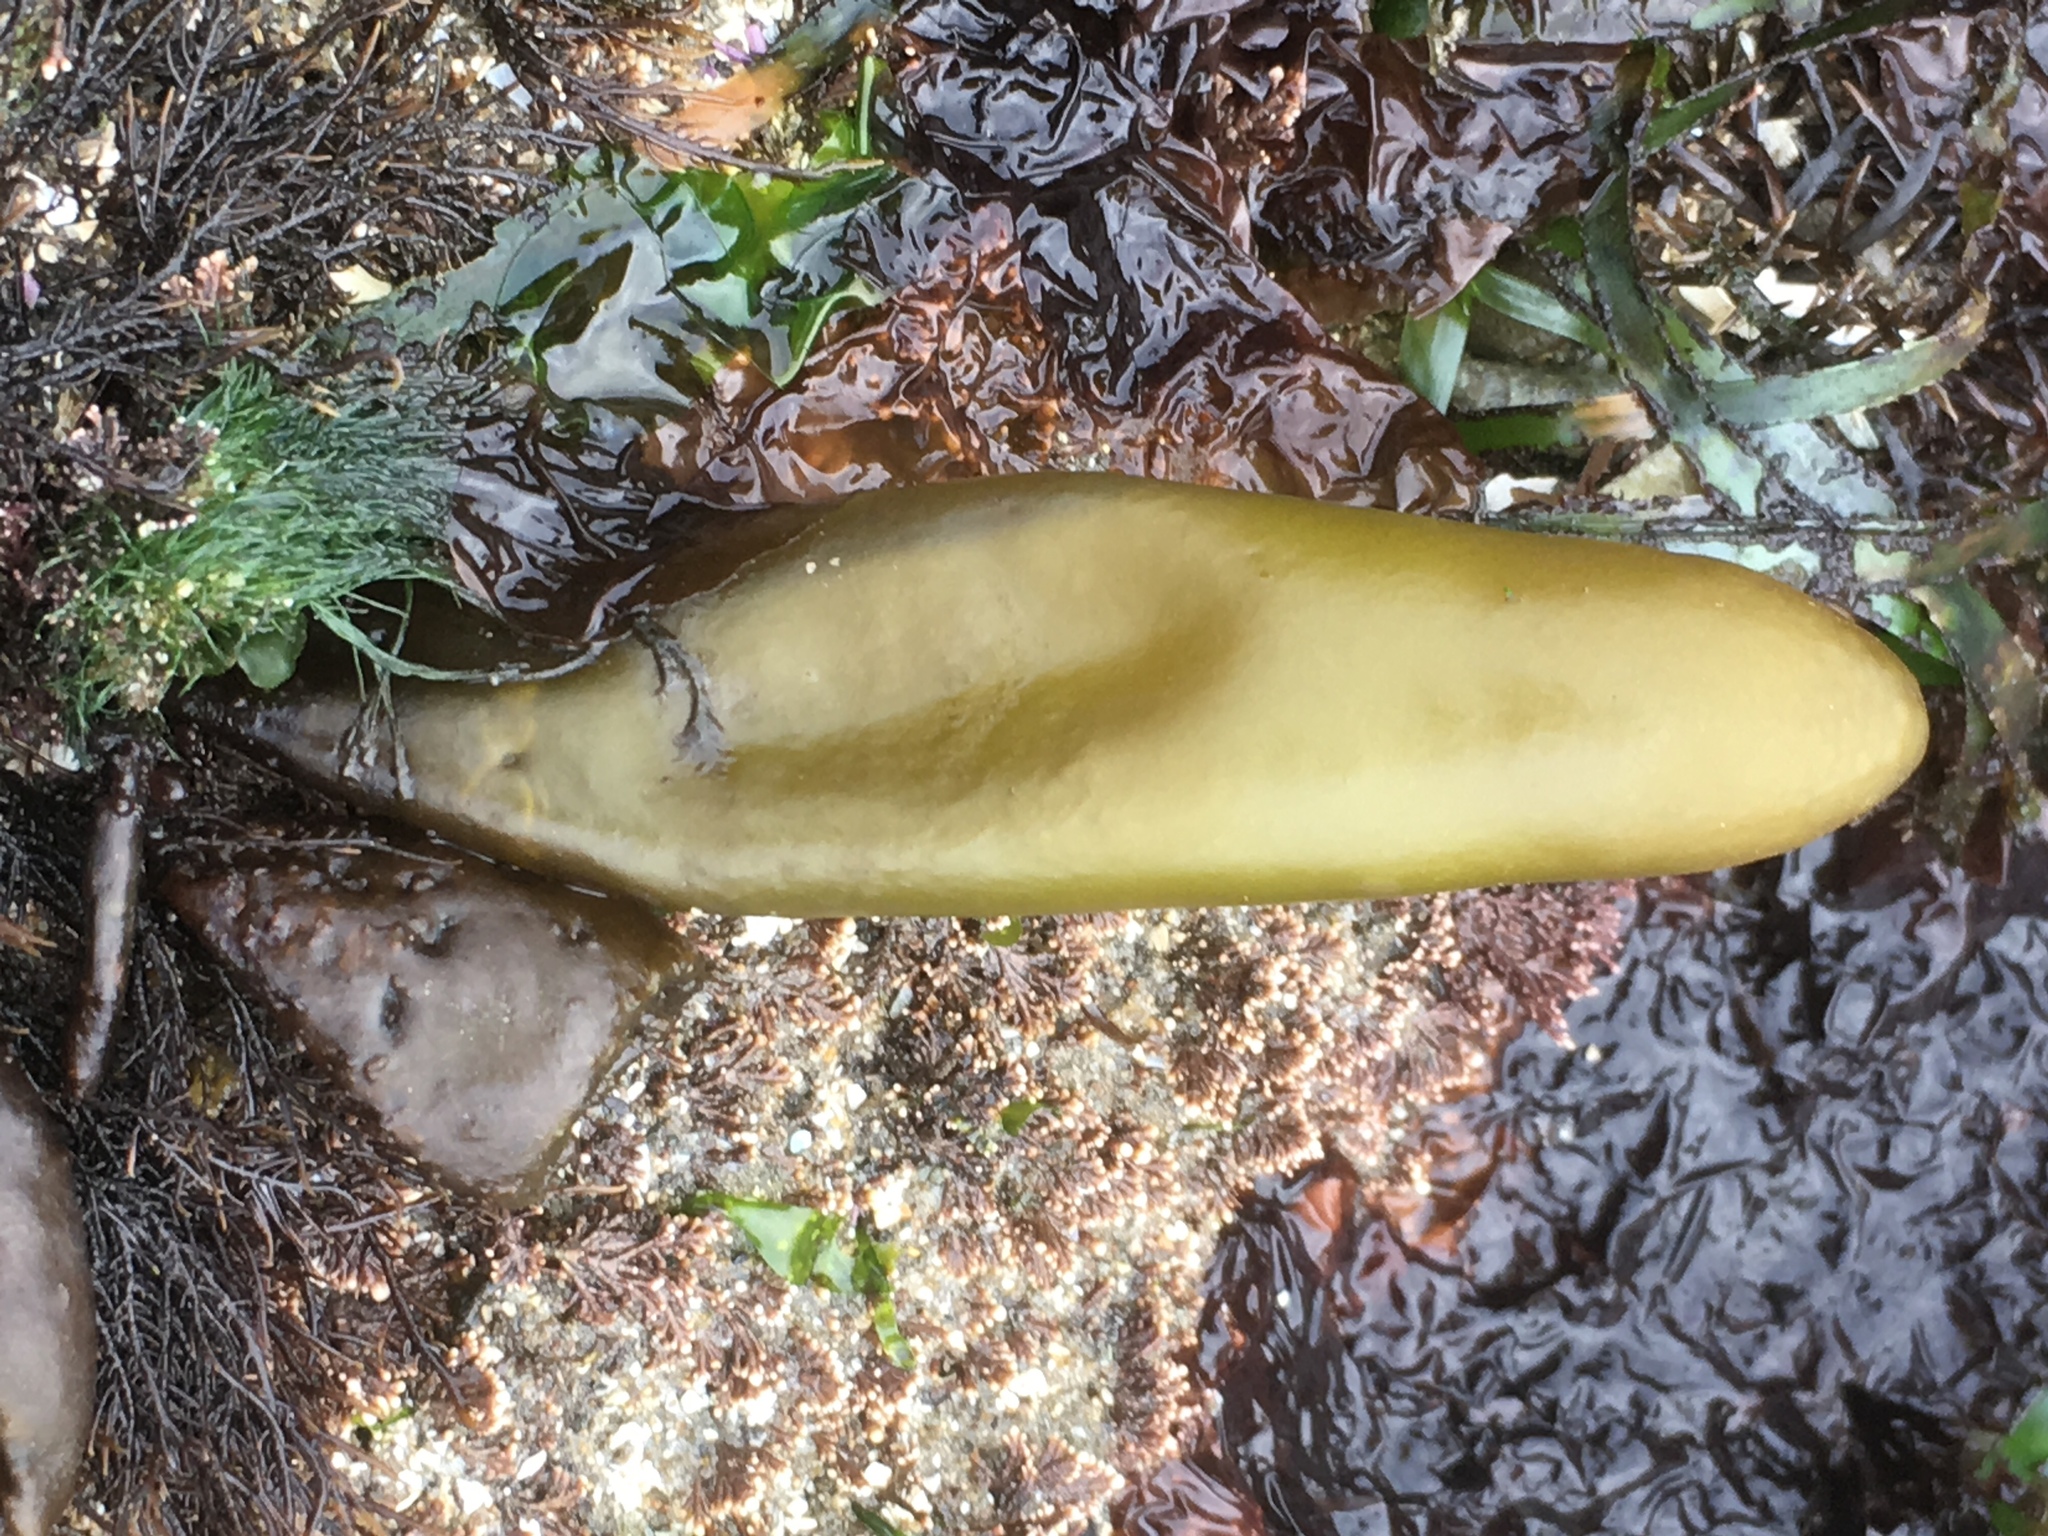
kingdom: Plantae
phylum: Rhodophyta
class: Florideophyceae
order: Palmariales
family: Palmariaceae
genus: Halosaccion
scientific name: Halosaccion glandiforme
